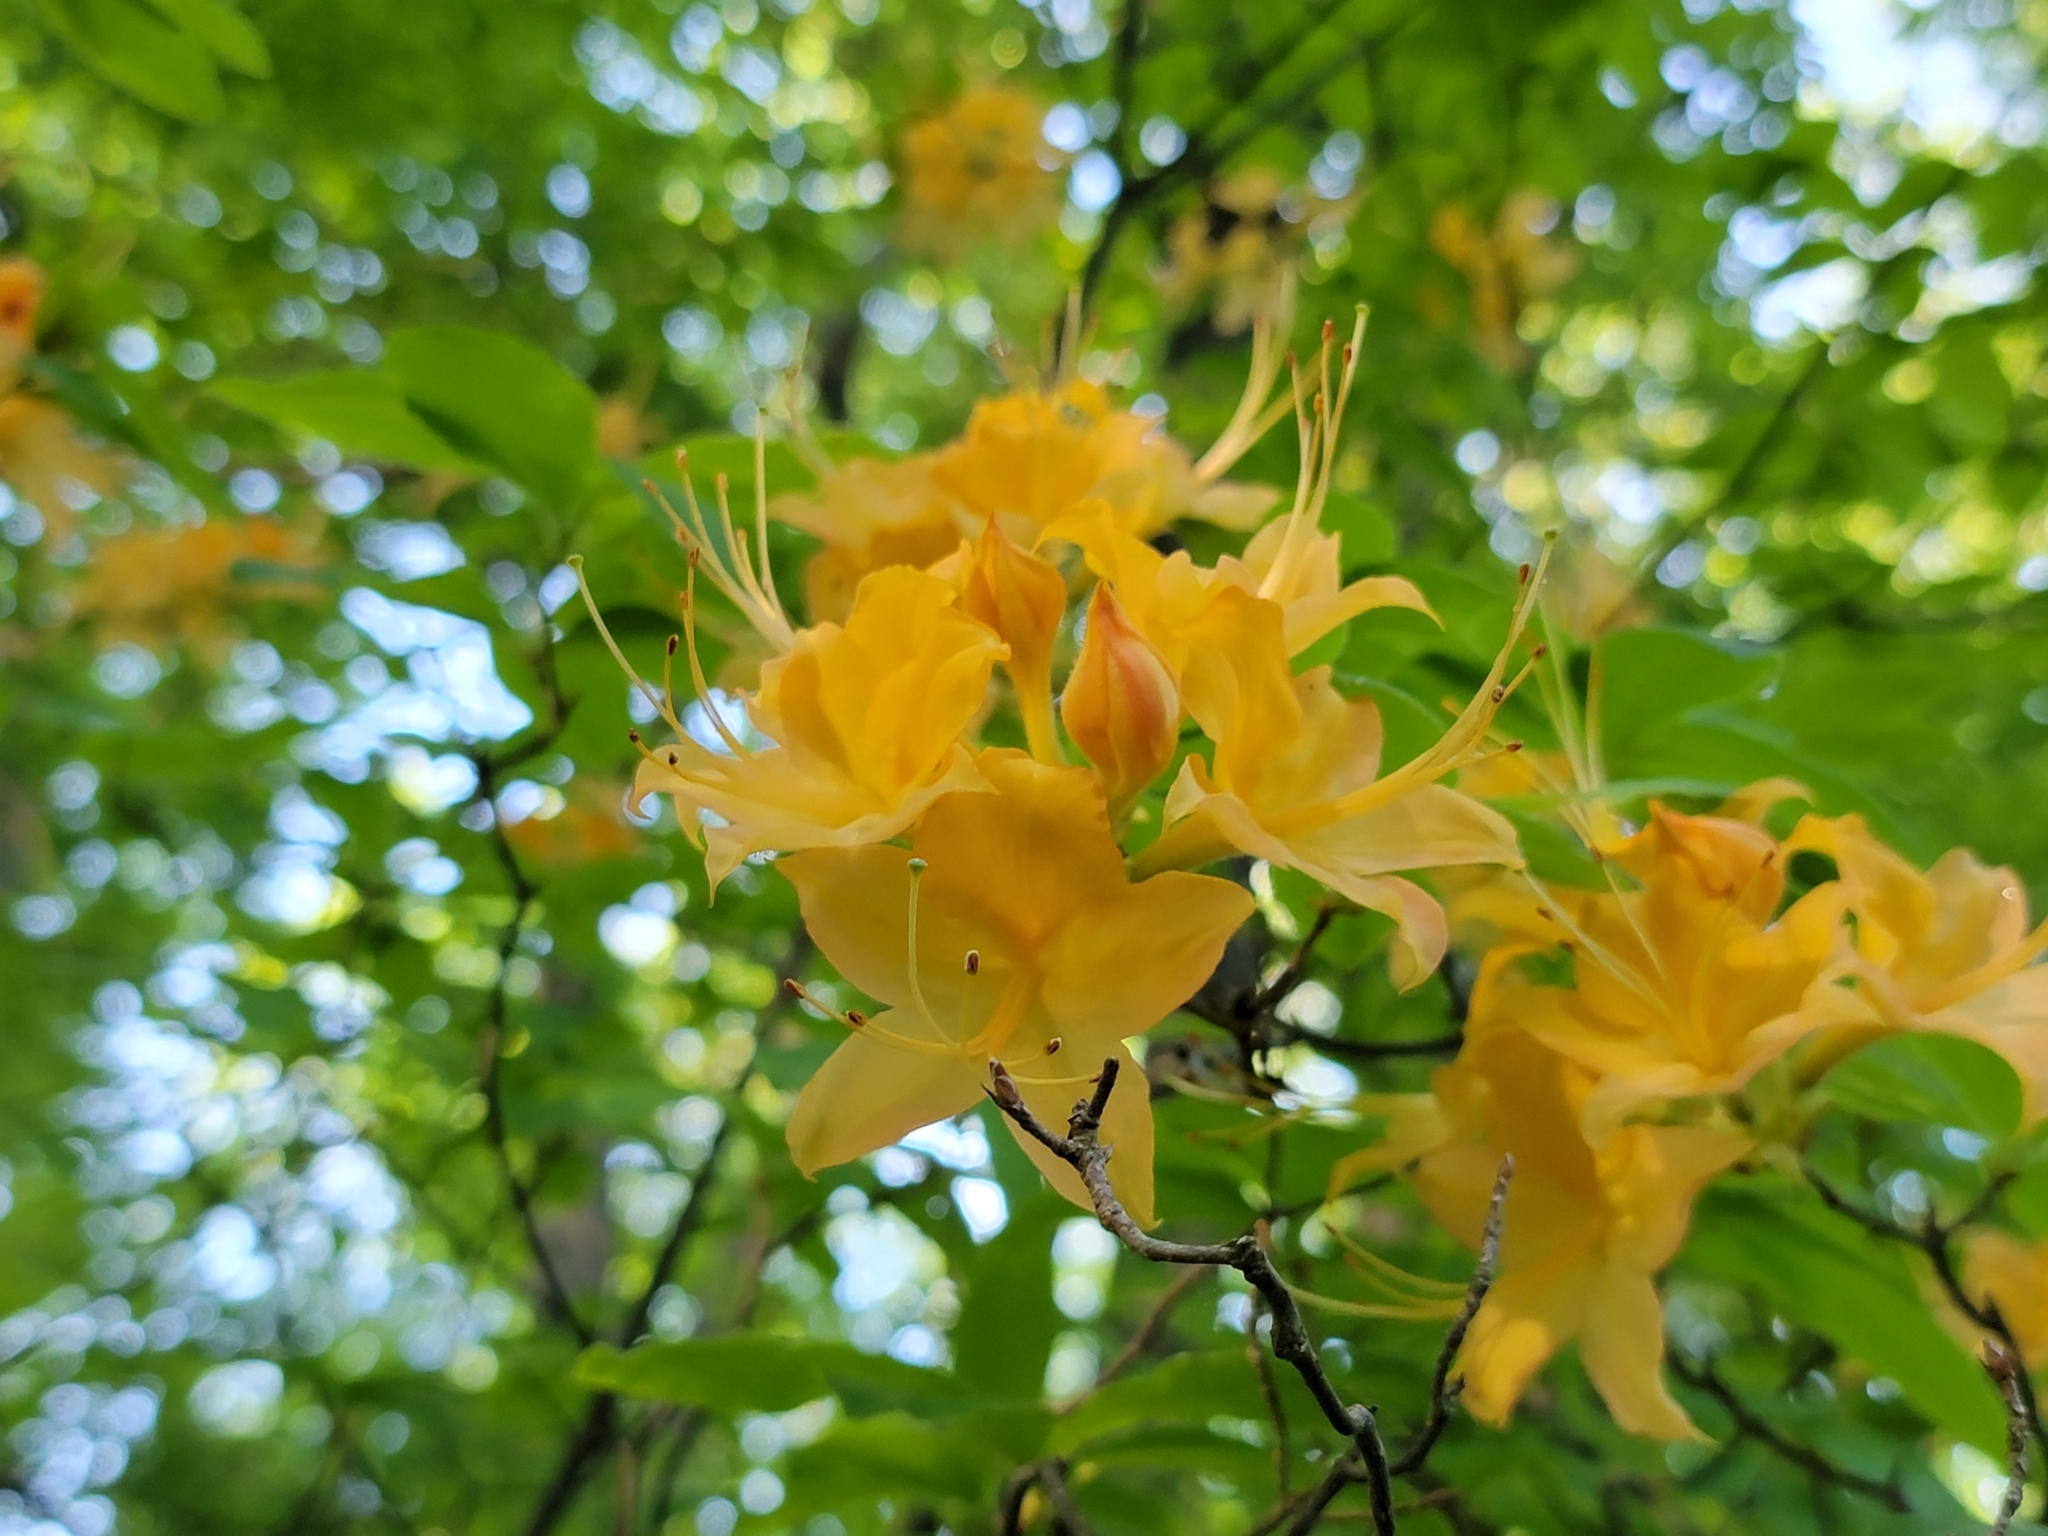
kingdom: Plantae
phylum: Tracheophyta
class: Magnoliopsida
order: Ericales
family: Ericaceae
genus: Rhododendron
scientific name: Rhododendron calendulaceum
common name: Flame azalea
